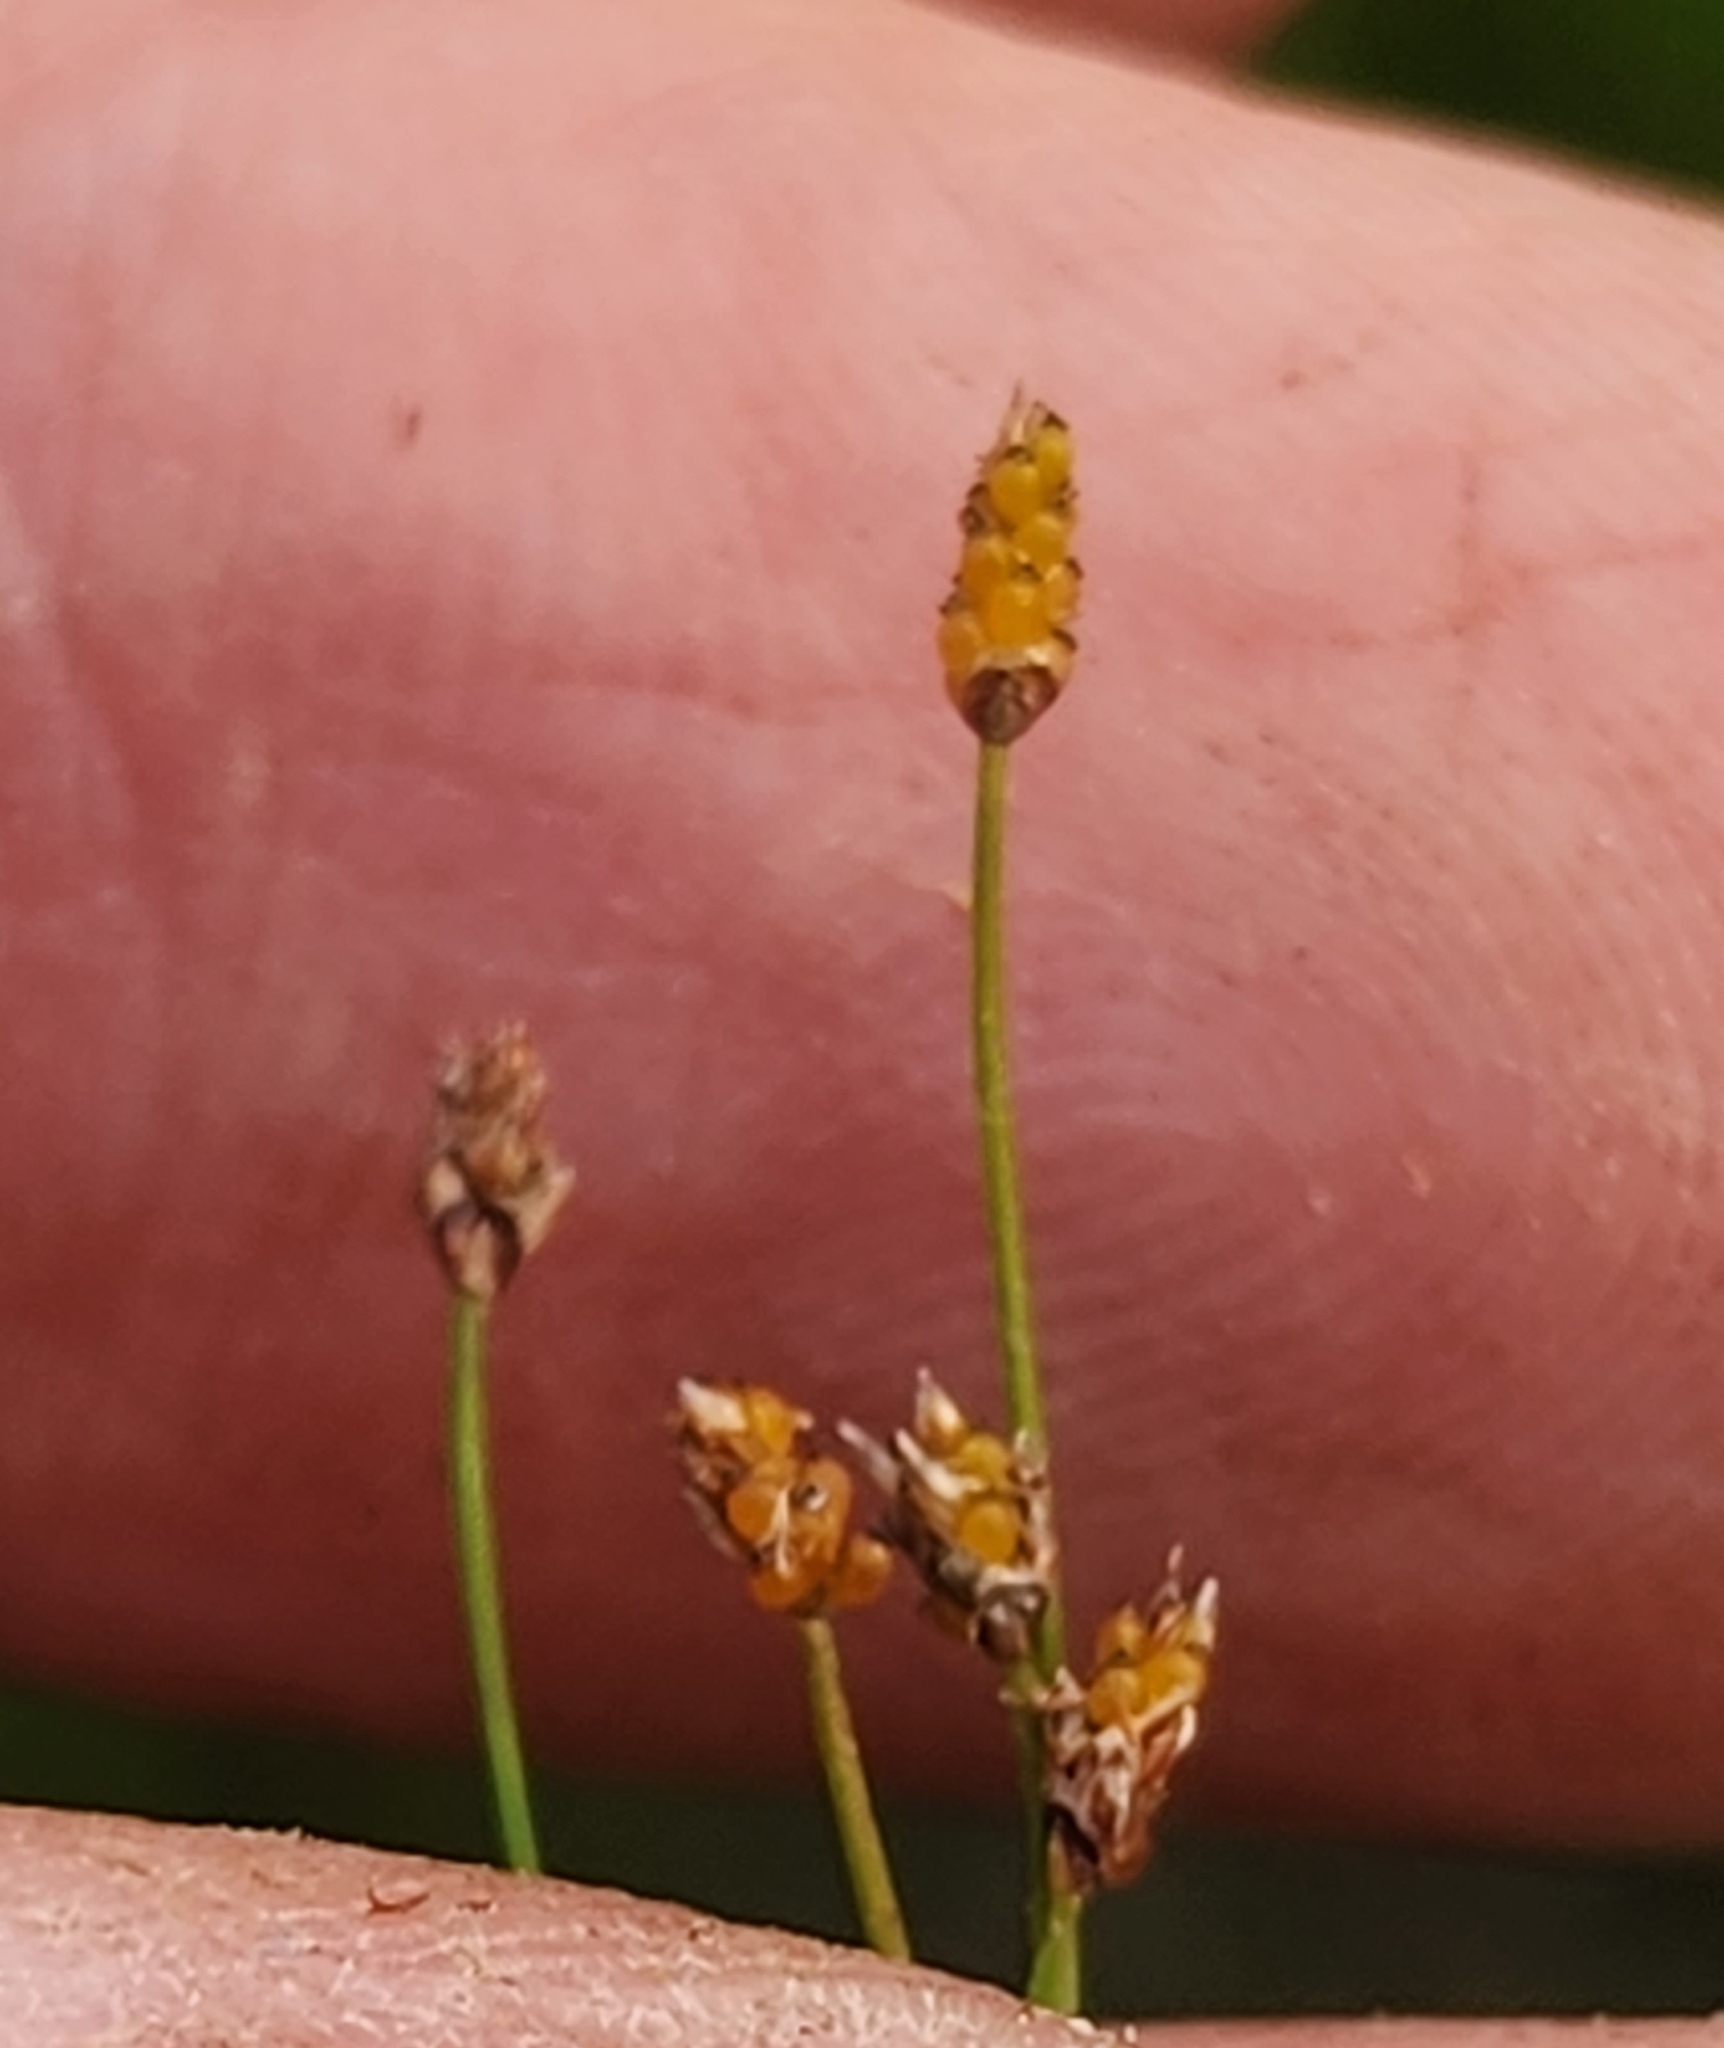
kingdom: Plantae
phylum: Tracheophyta
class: Liliopsida
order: Poales
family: Cyperaceae
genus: Eleocharis
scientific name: Eleocharis nitida
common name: Neat spikerush
